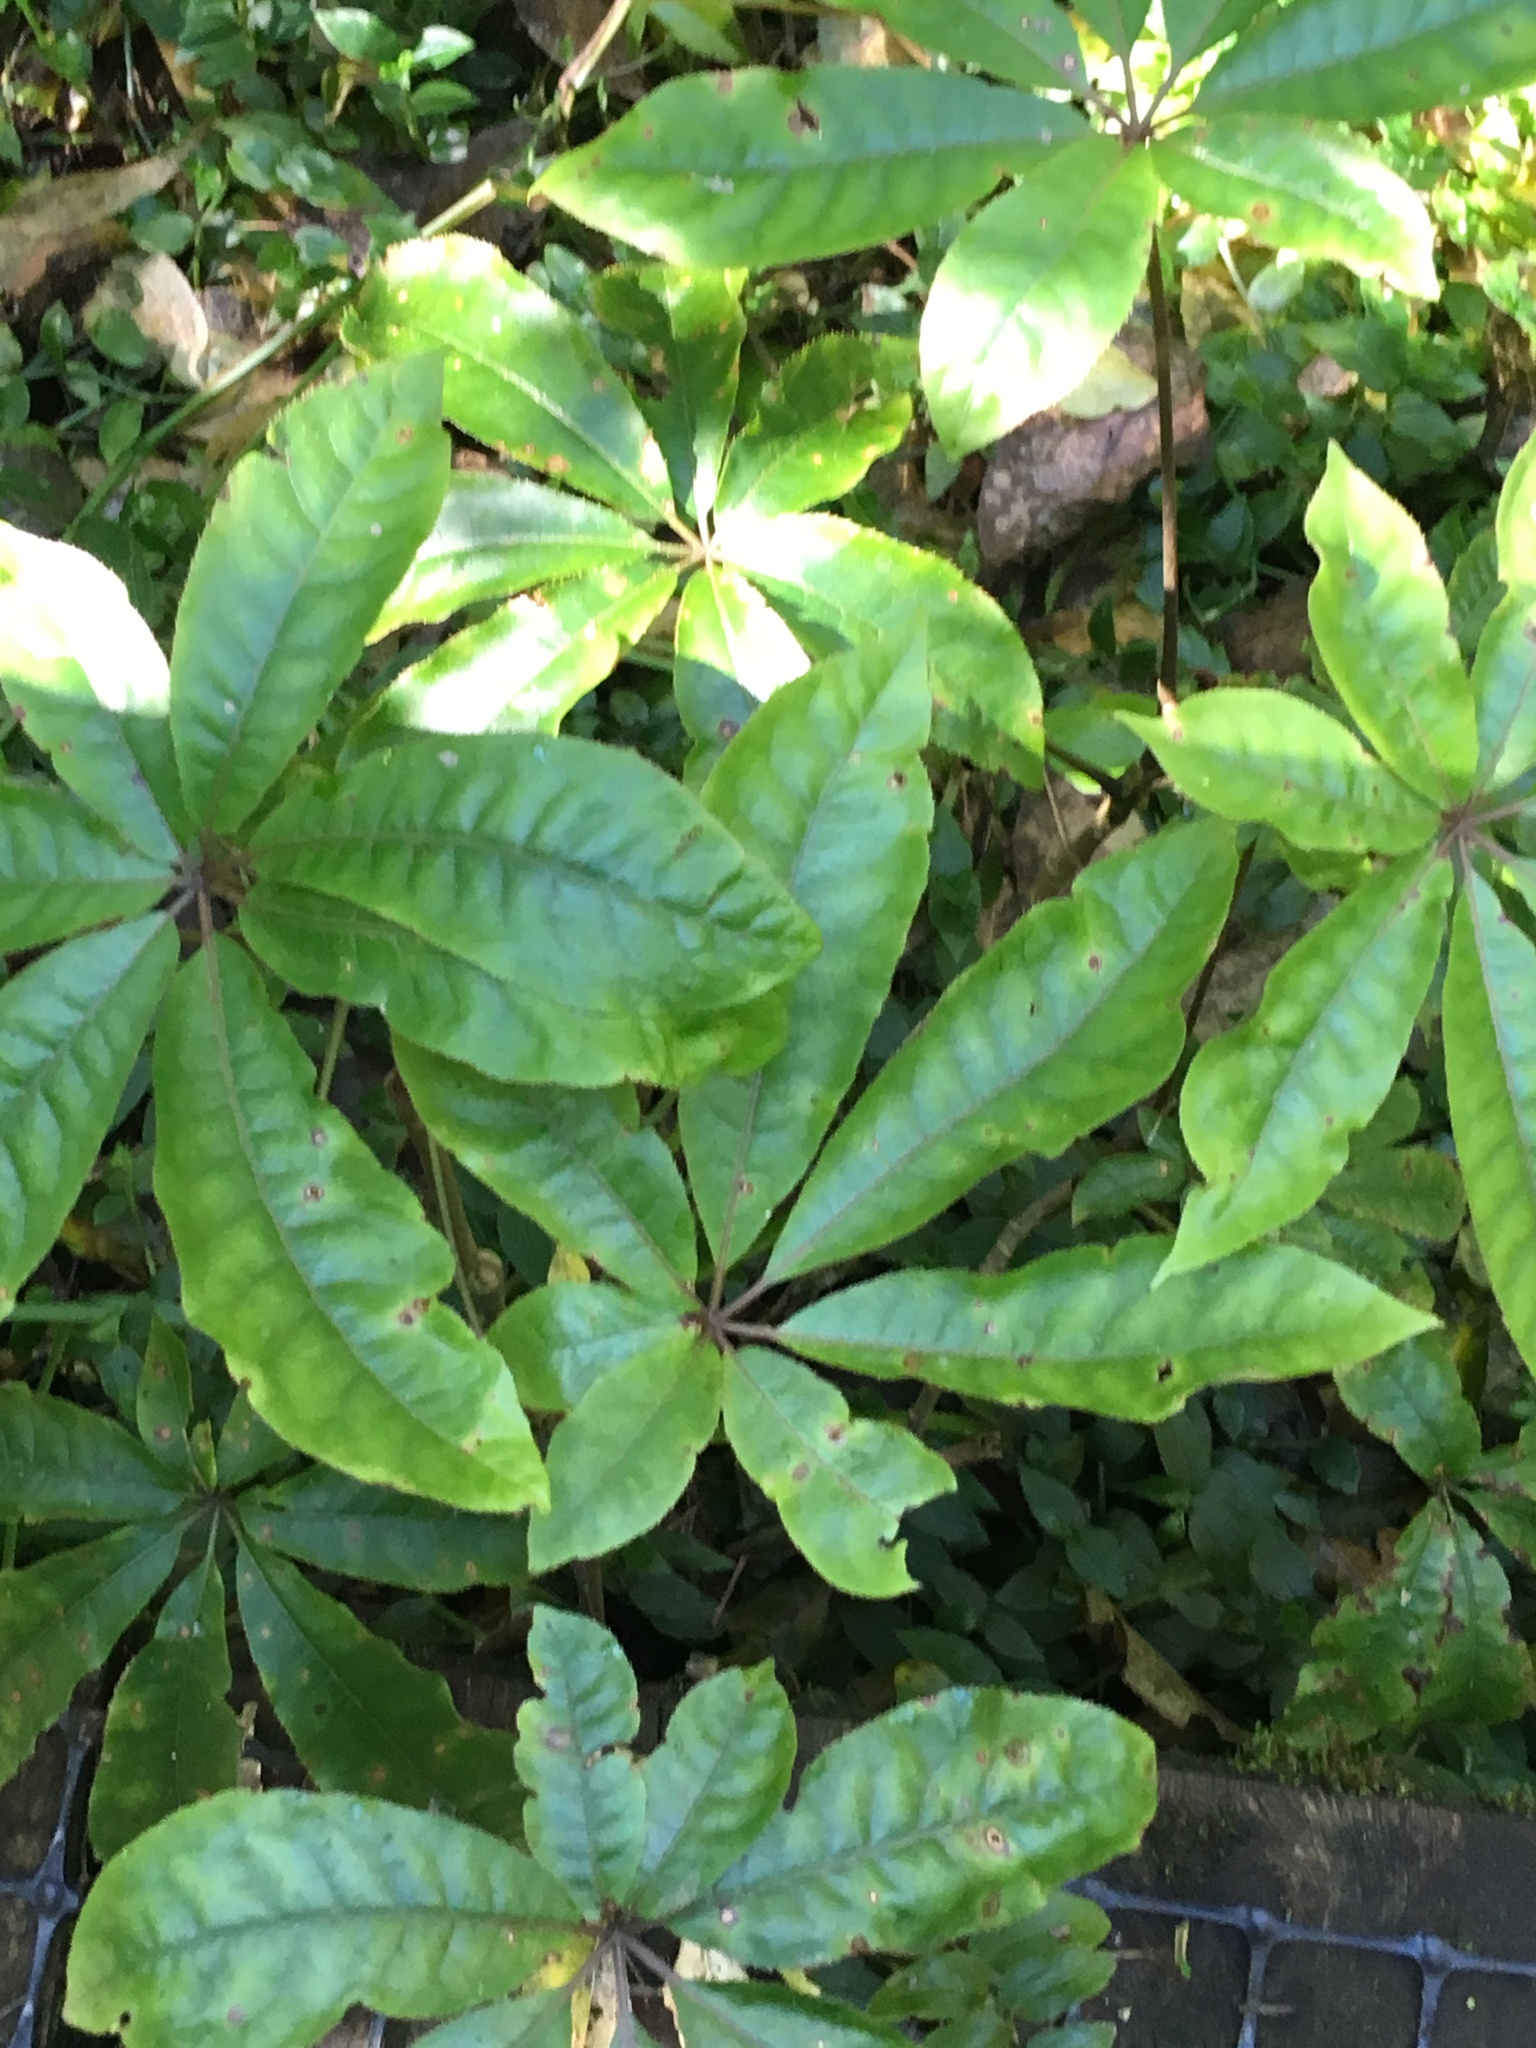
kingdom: Plantae
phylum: Tracheophyta
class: Magnoliopsida
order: Apiales
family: Araliaceae
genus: Schefflera
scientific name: Schefflera digitata
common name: Pate
